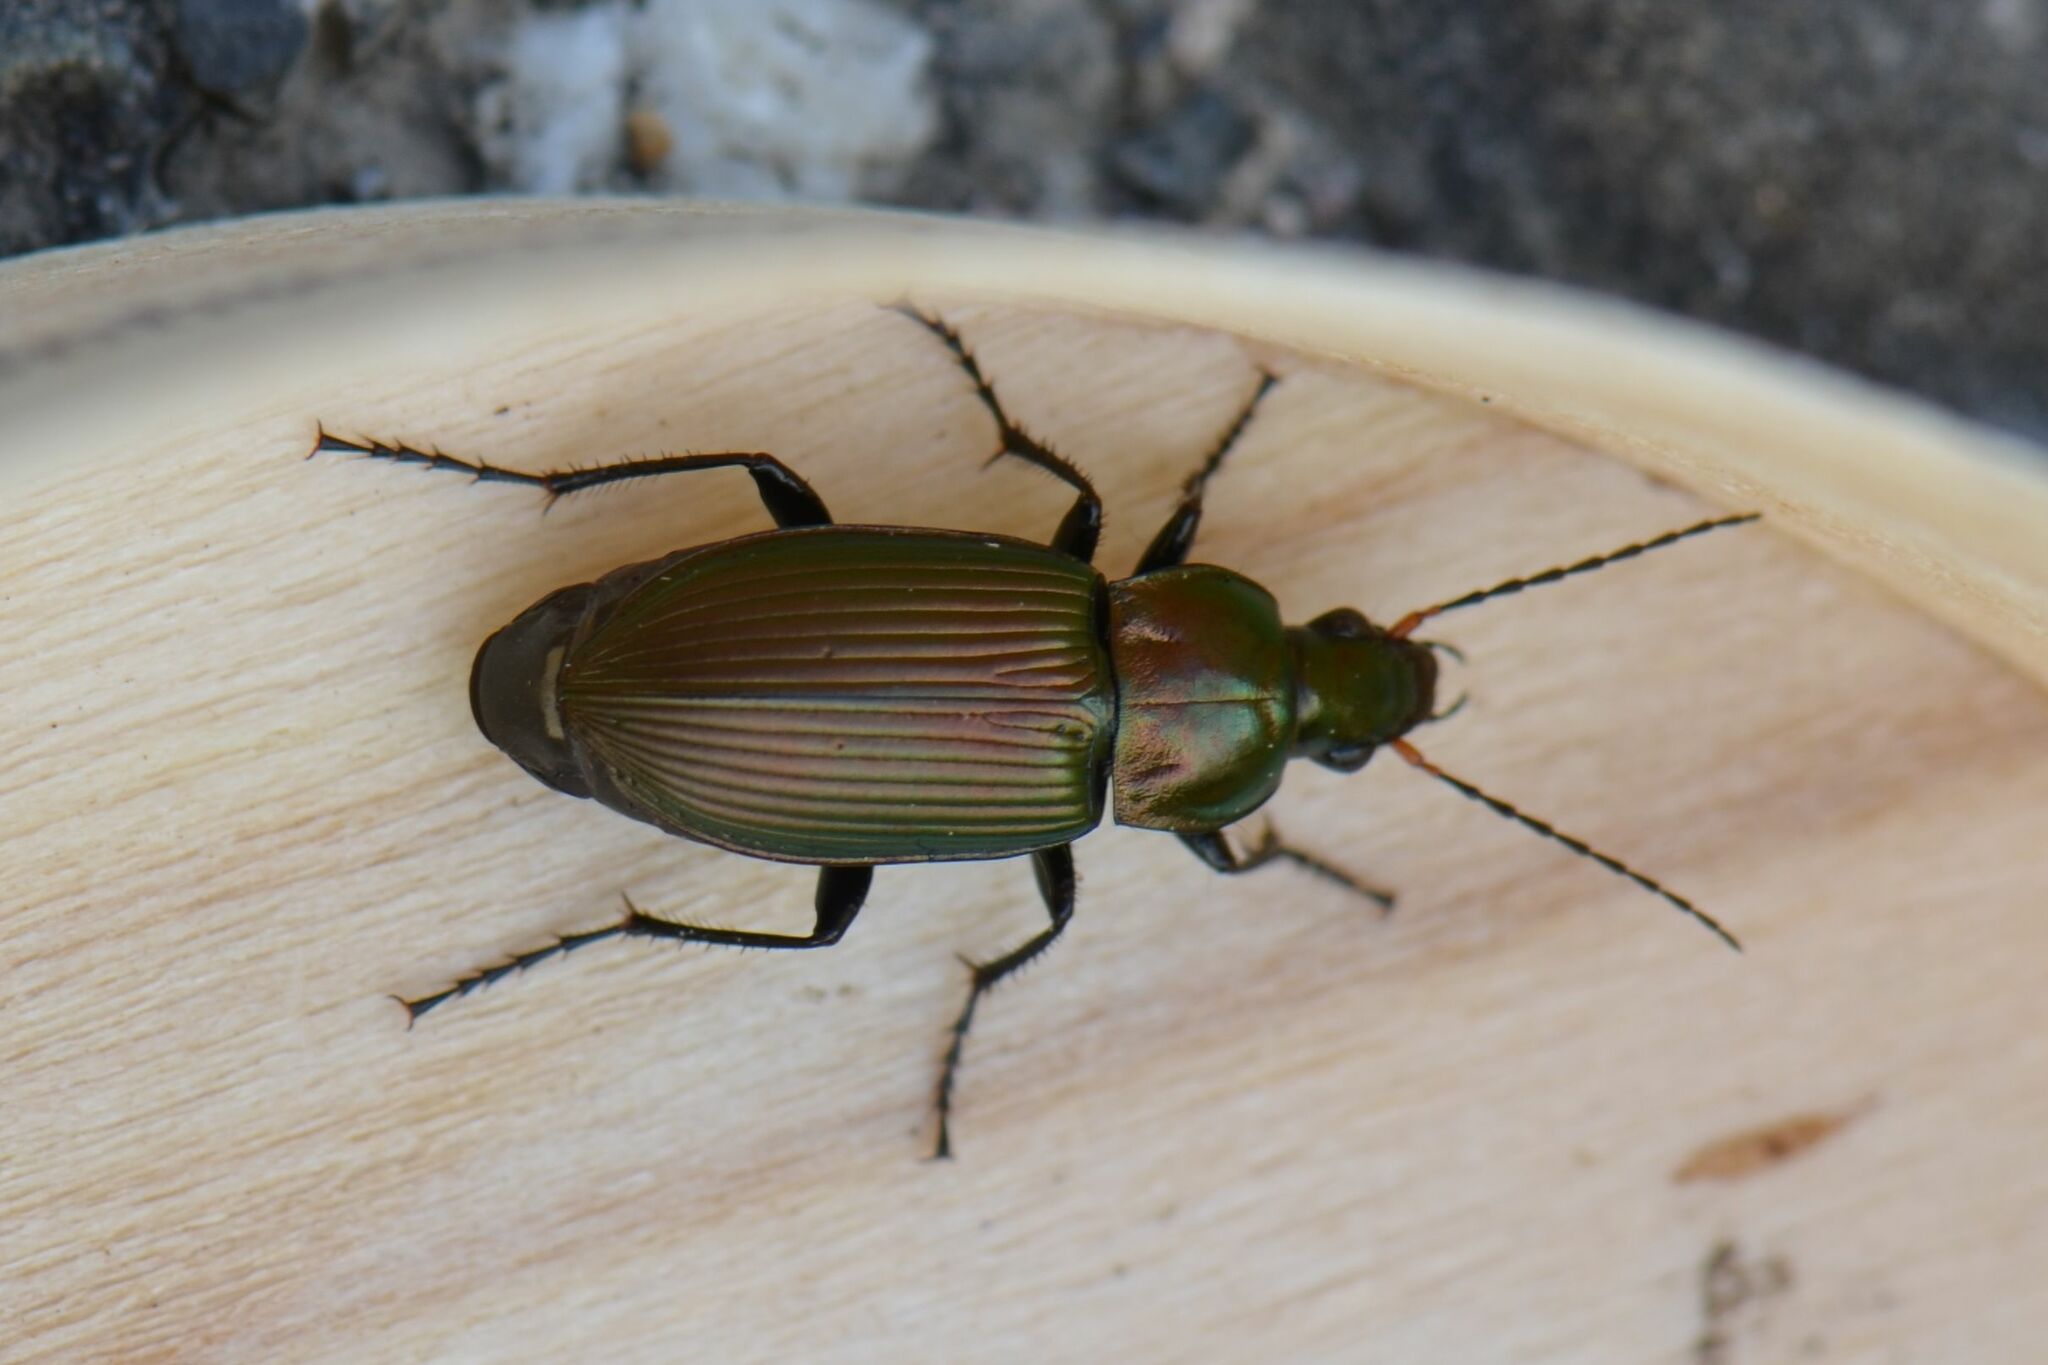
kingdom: Animalia
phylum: Arthropoda
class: Insecta
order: Coleoptera
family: Carabidae
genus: Poecilus
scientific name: Poecilus cupreus
